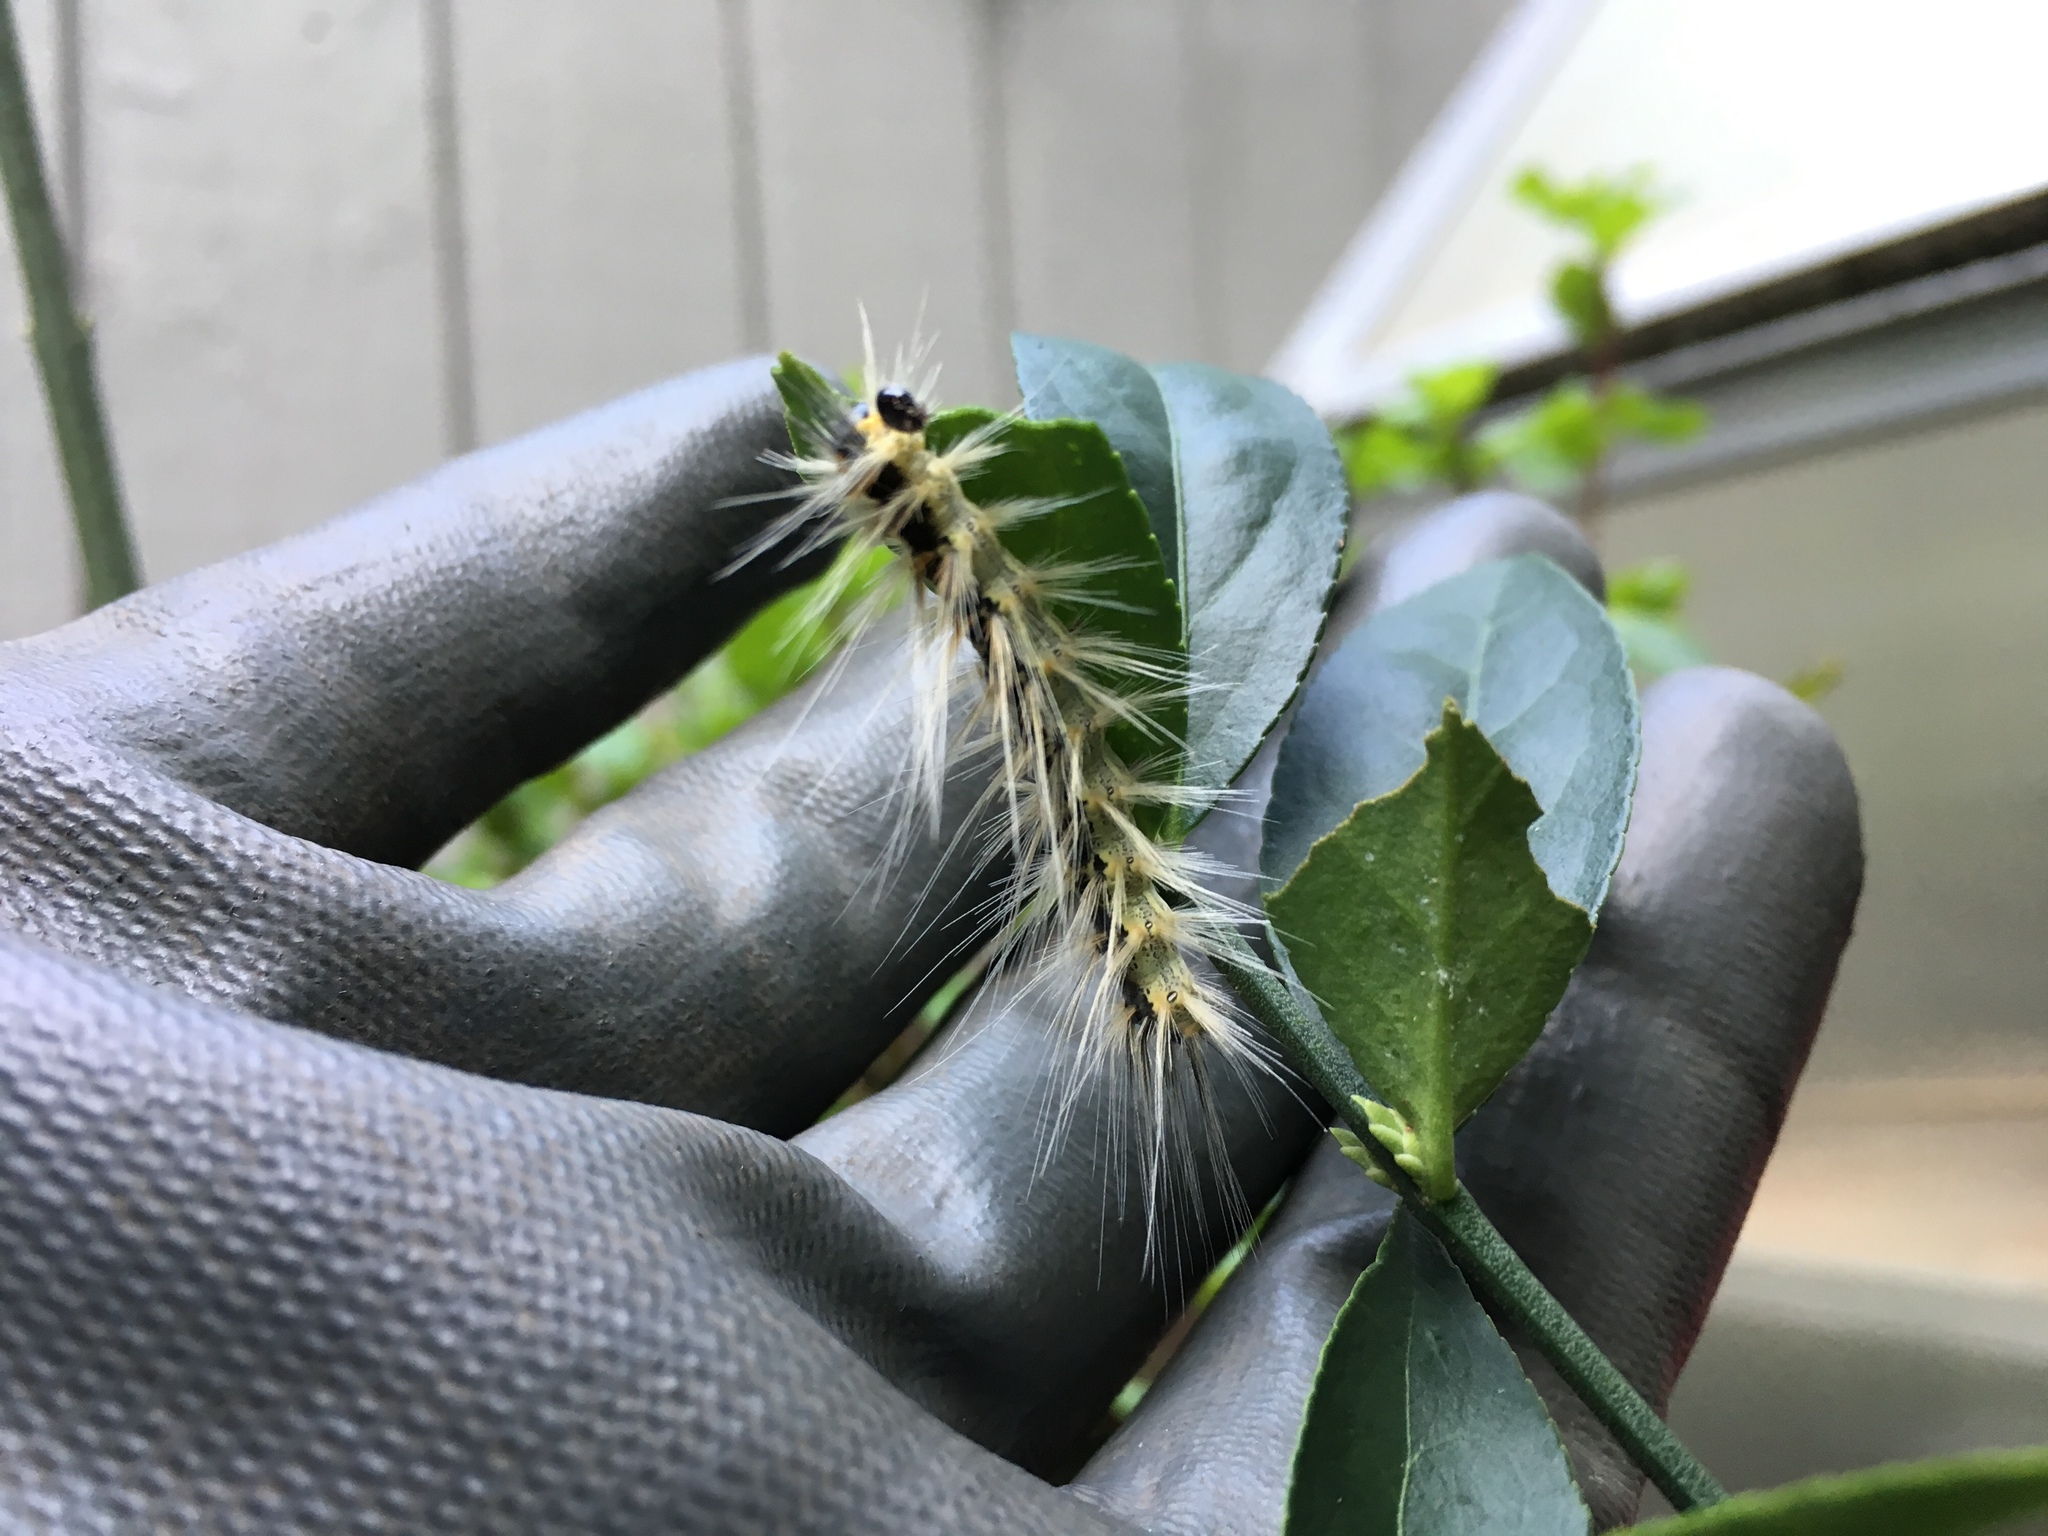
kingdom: Animalia
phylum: Arthropoda
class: Insecta
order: Lepidoptera
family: Erebidae
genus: Hyphantria
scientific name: Hyphantria cunea
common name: American white moth
